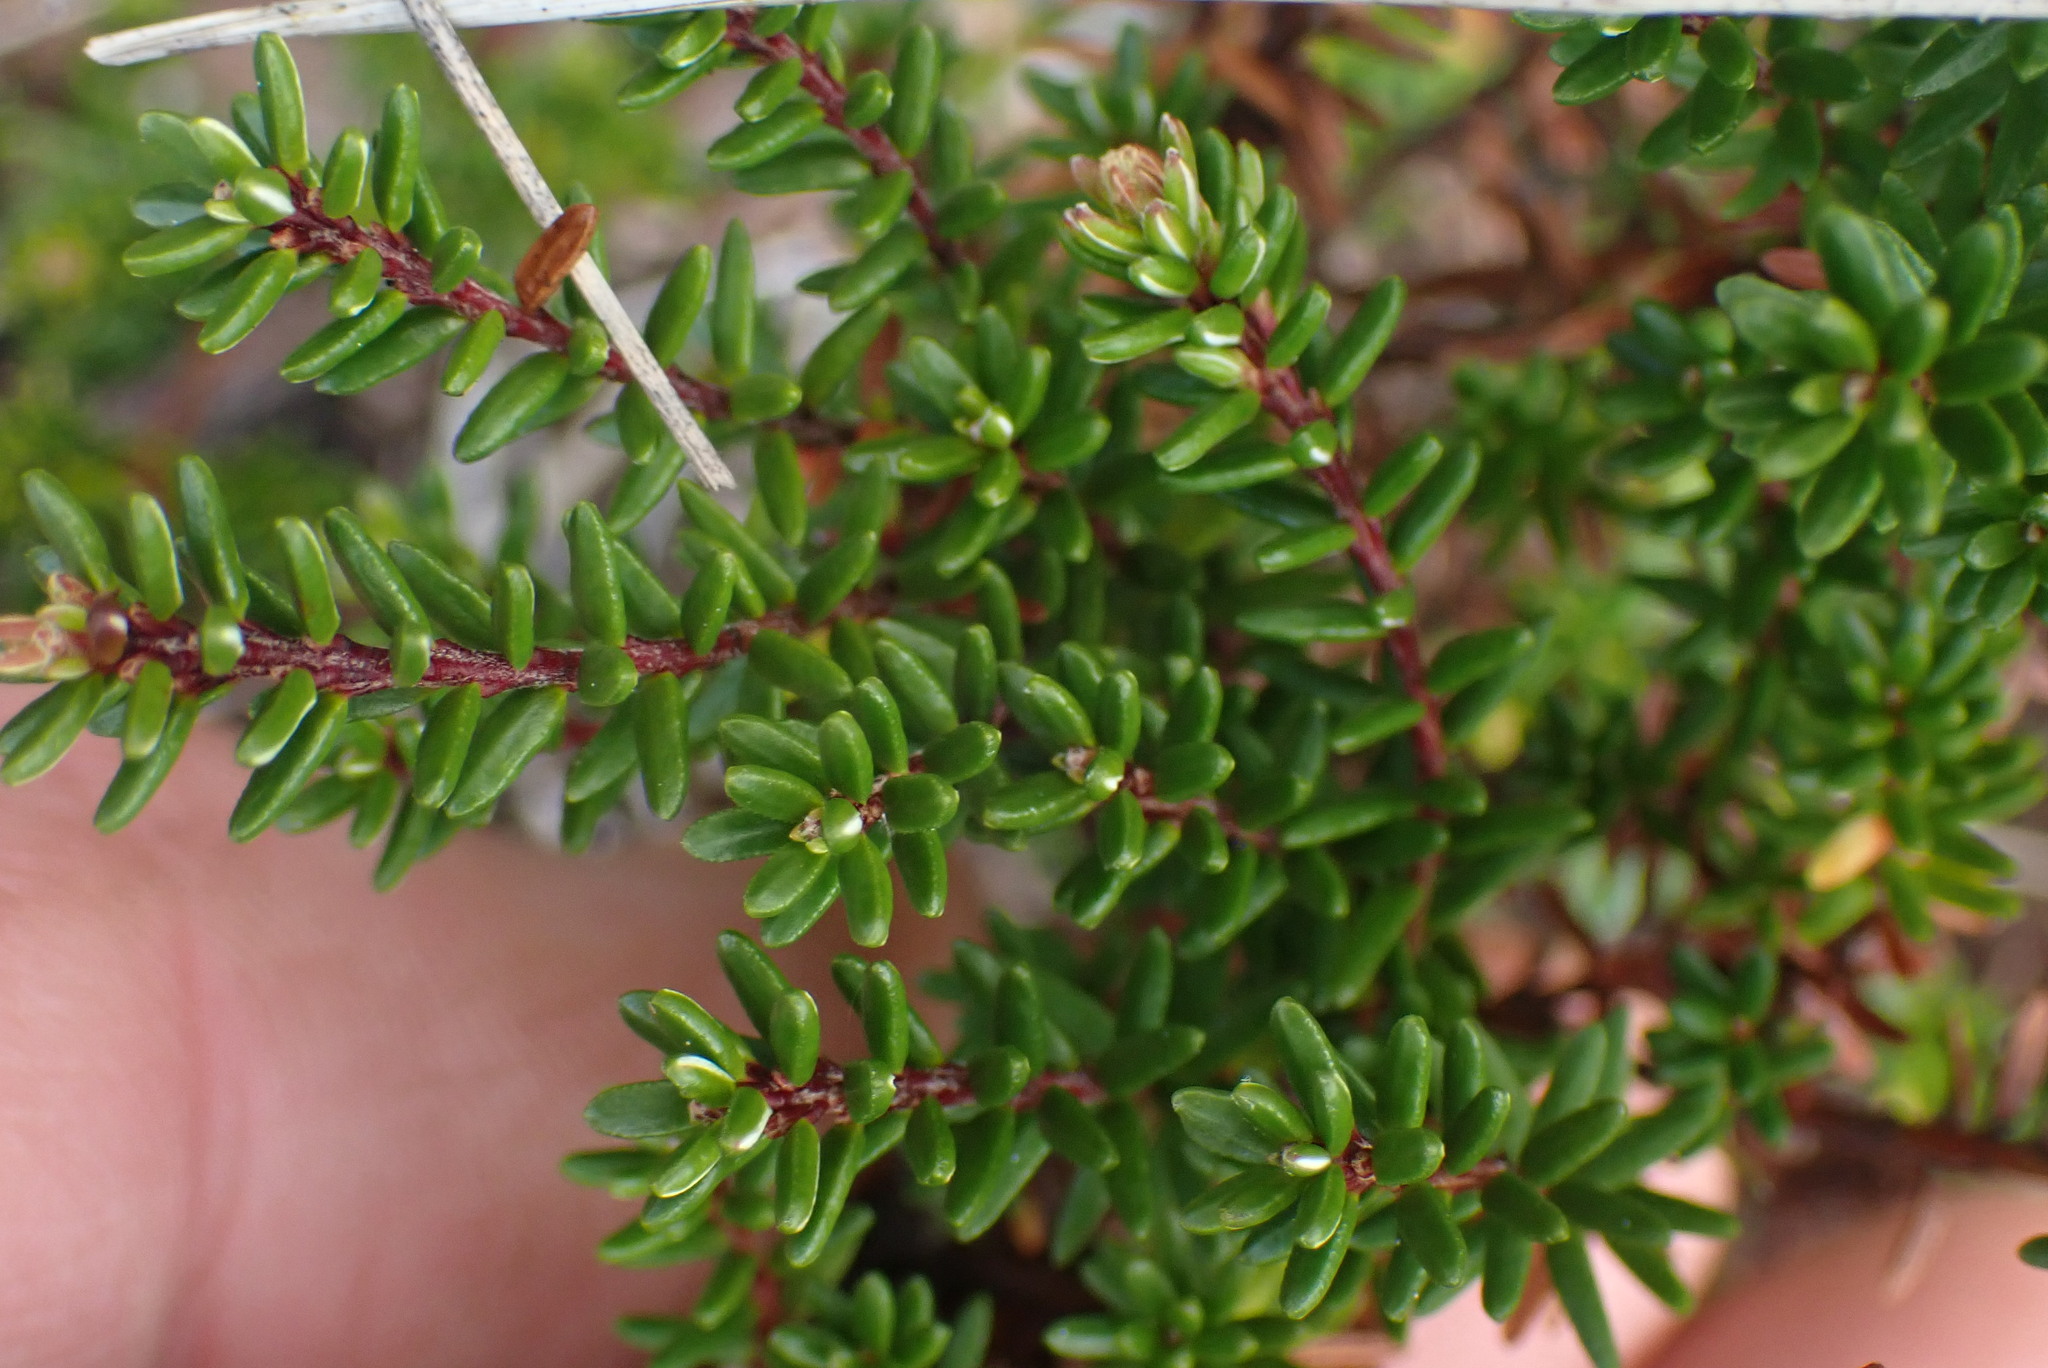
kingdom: Plantae
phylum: Tracheophyta
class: Magnoliopsida
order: Ericales
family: Ericaceae
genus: Empetrum
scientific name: Empetrum nigrum
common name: Black crowberry
